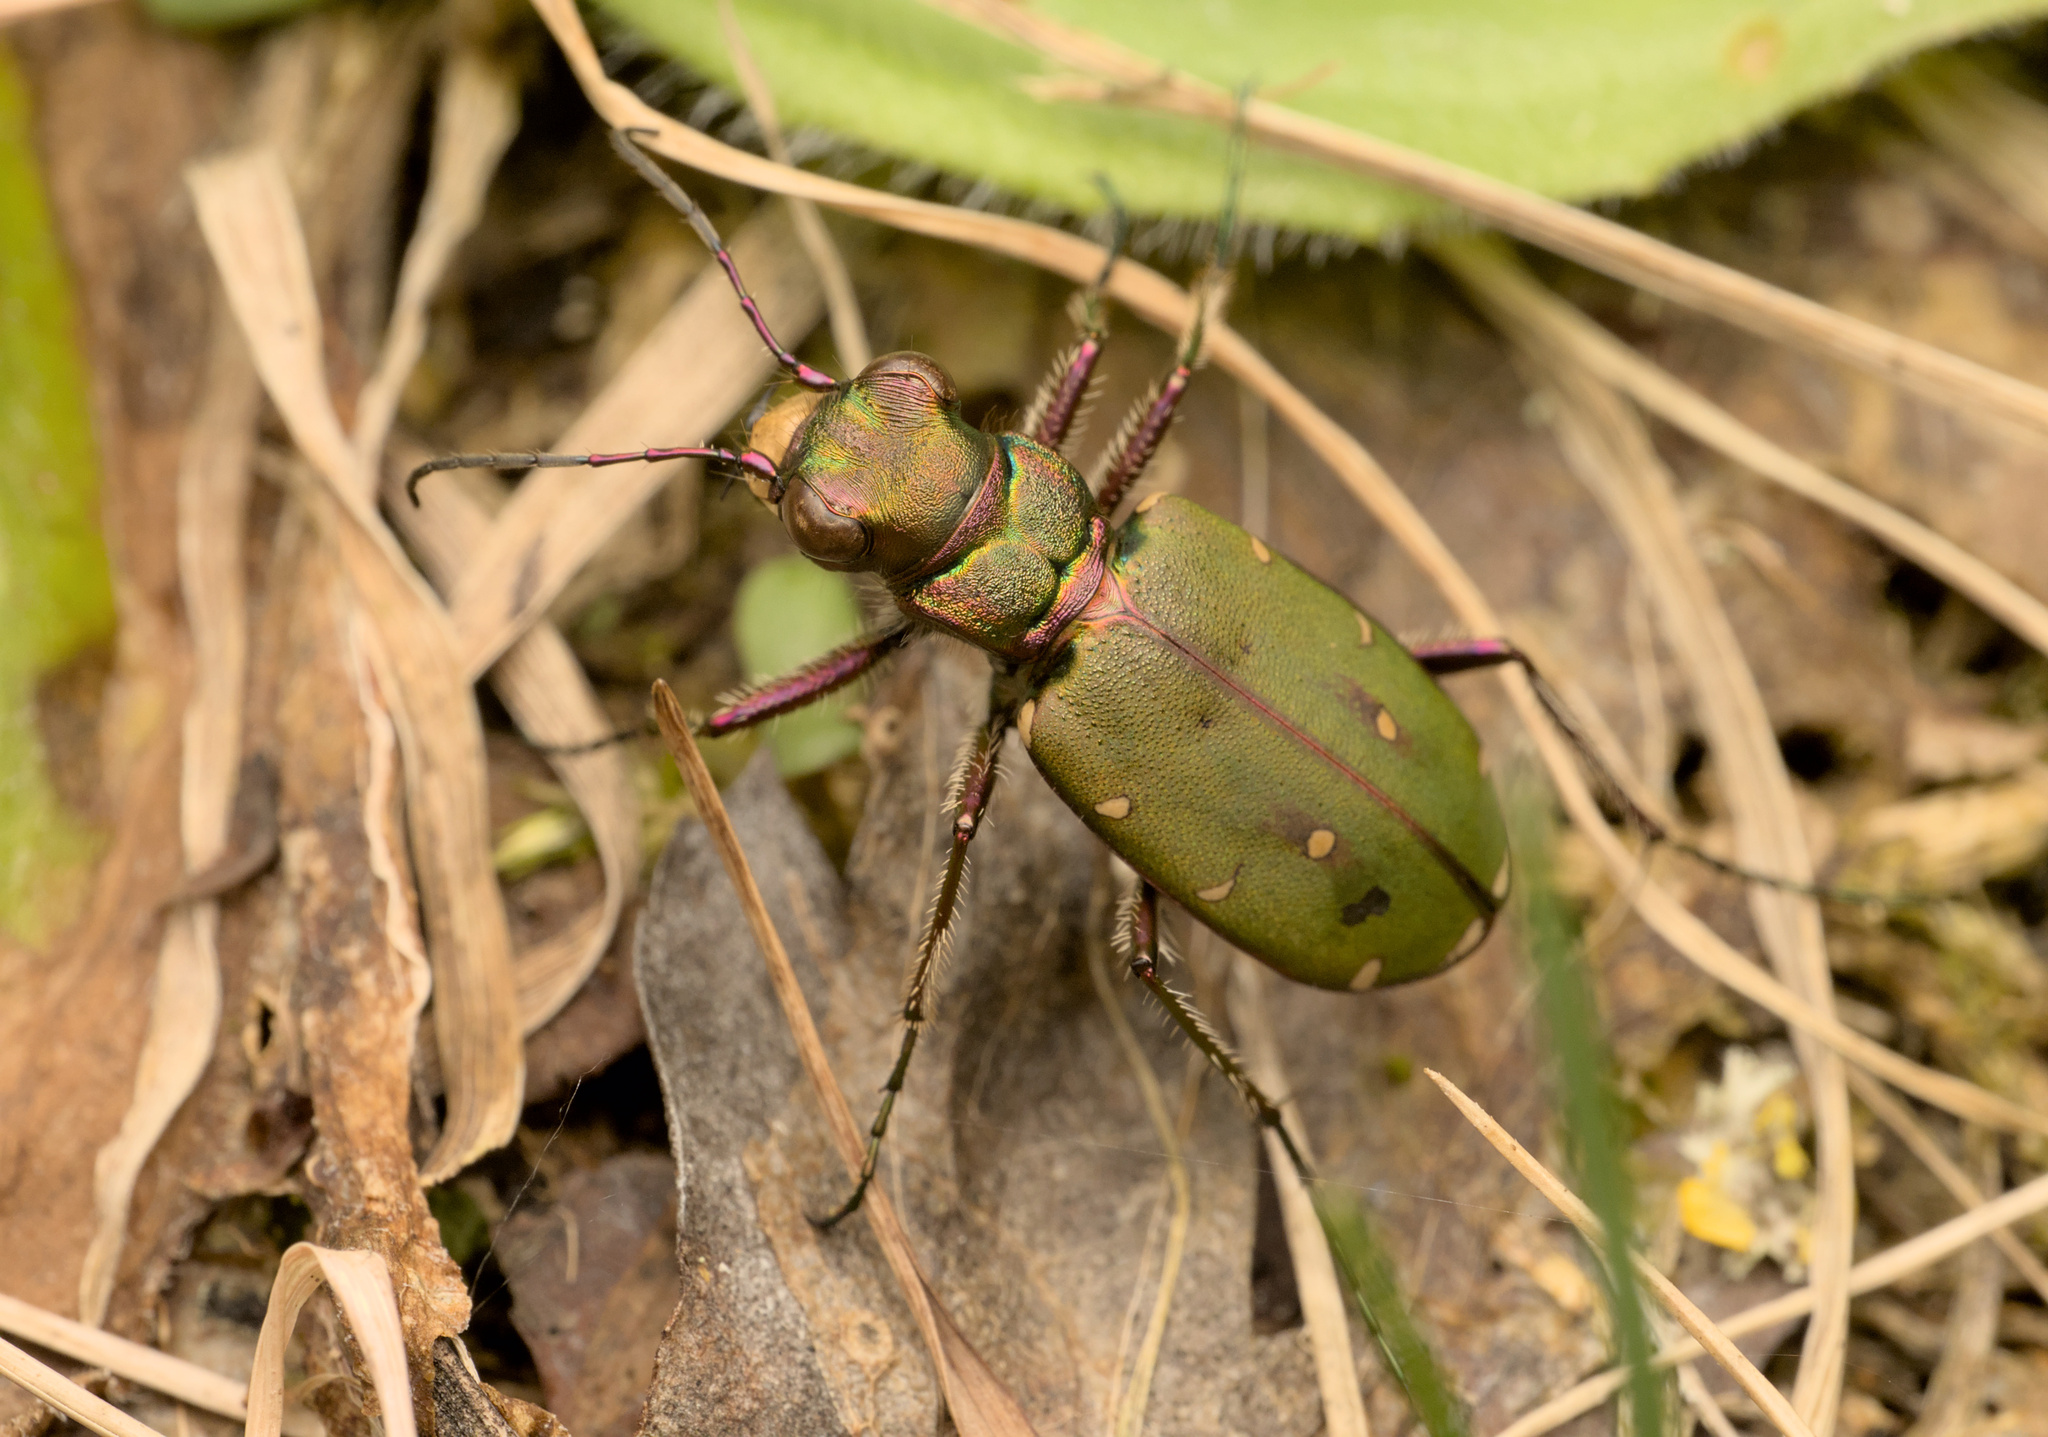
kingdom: Animalia
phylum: Arthropoda
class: Insecta
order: Coleoptera
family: Carabidae
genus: Cicindela
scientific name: Cicindela campestris
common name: Common tiger beetle
